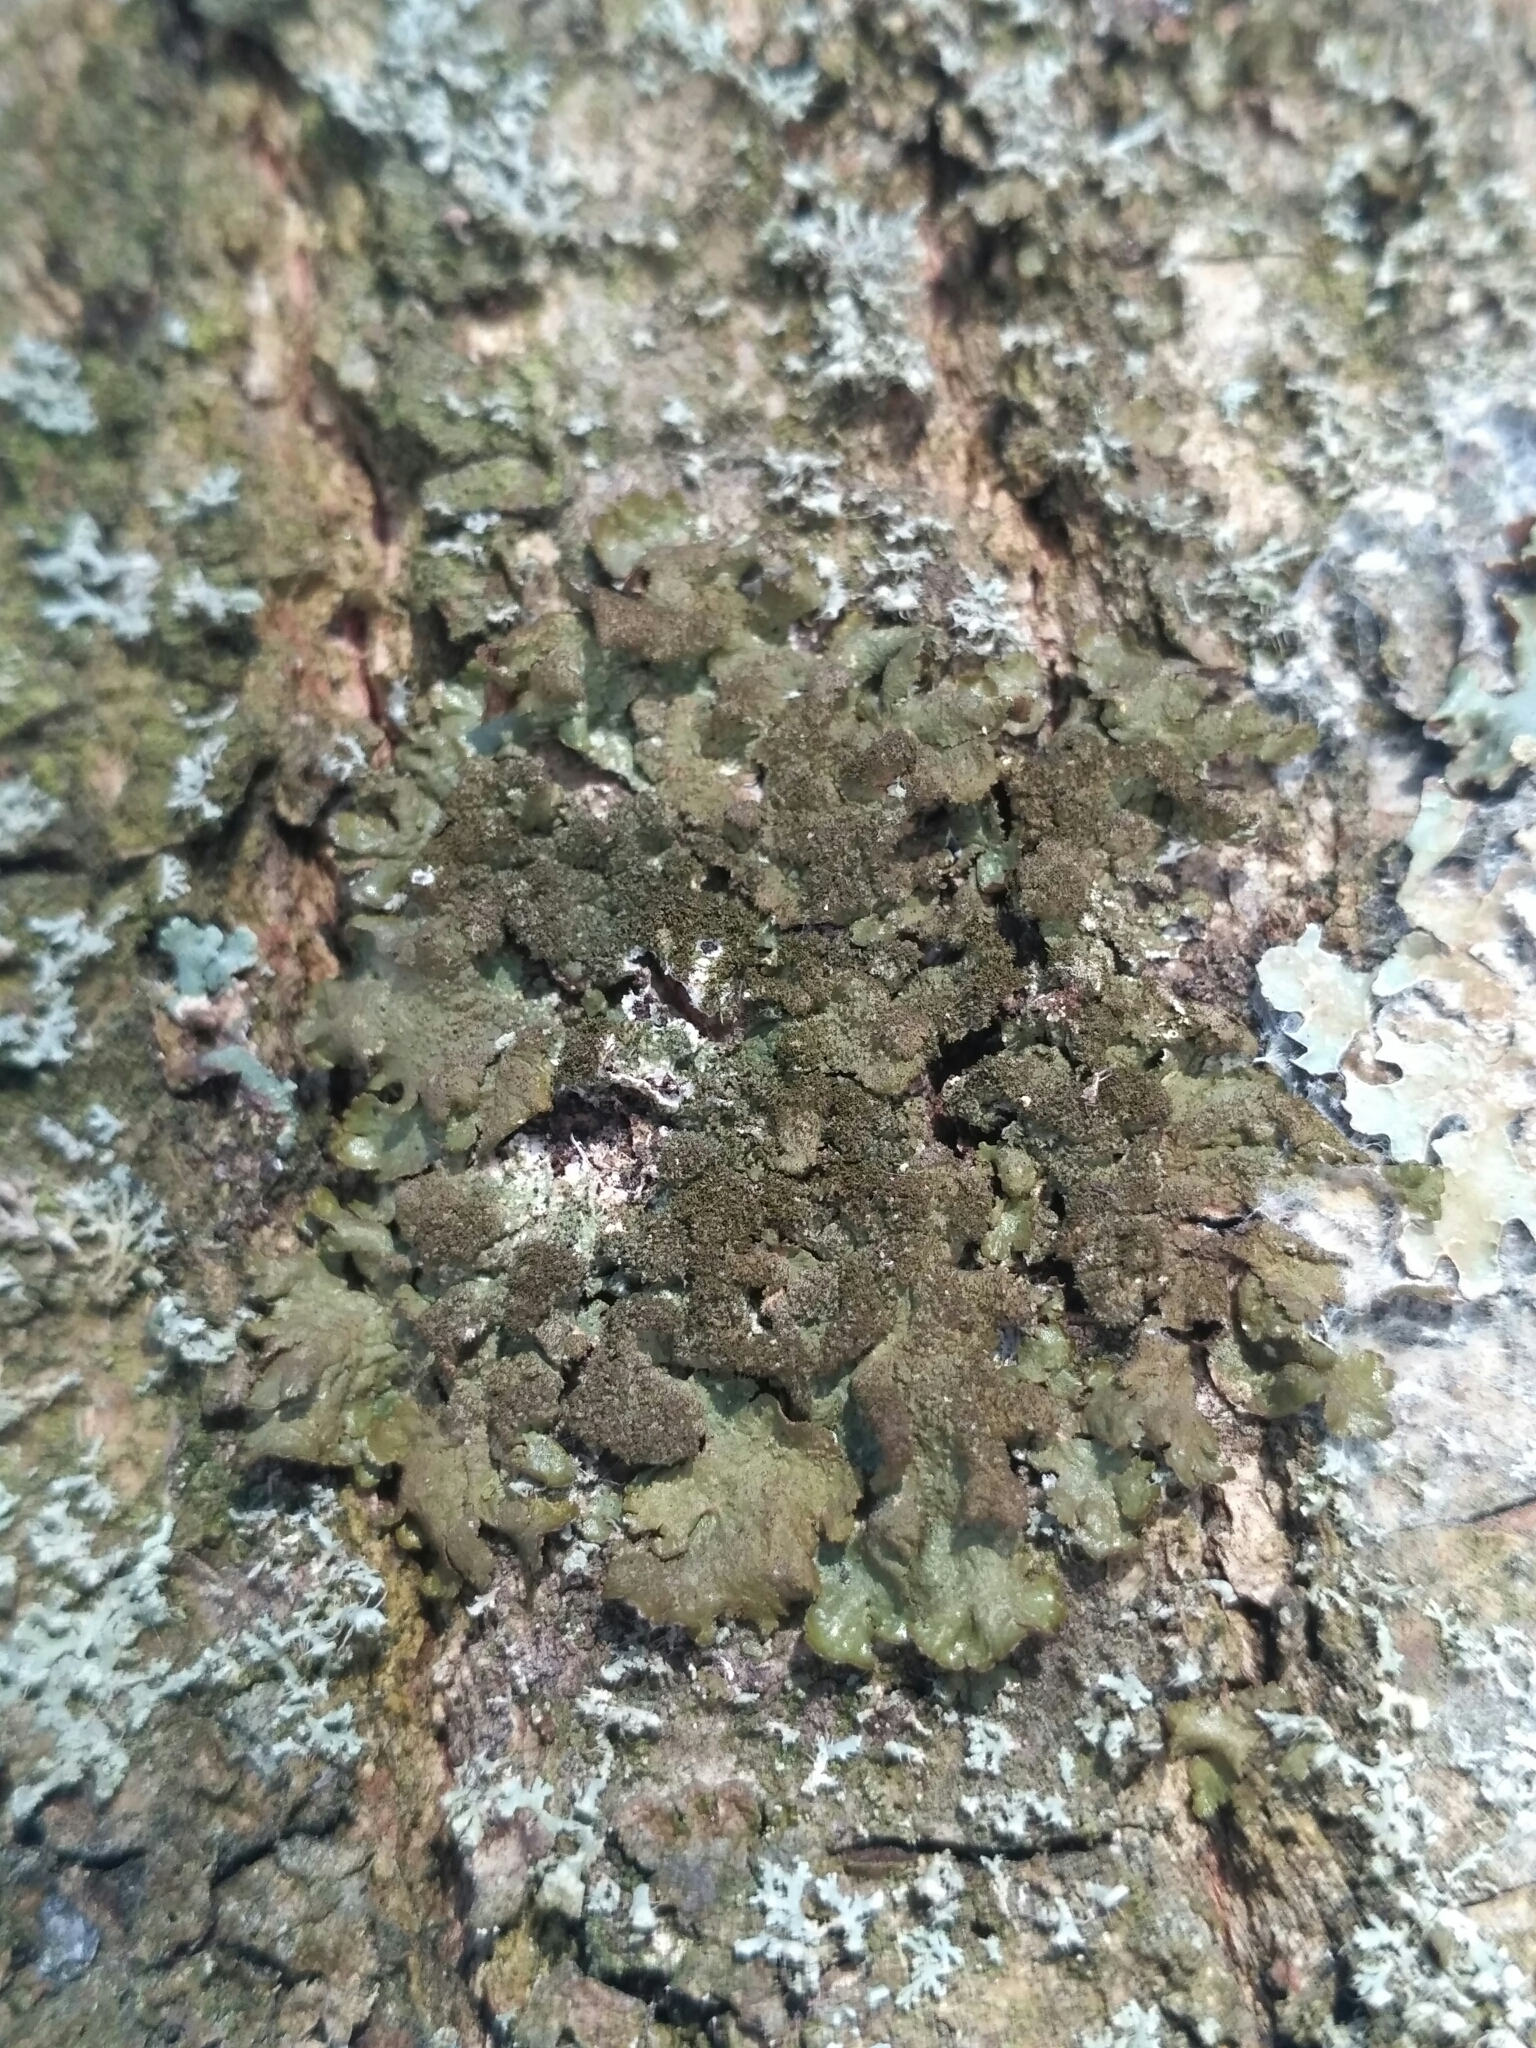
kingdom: Fungi
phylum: Ascomycota
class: Lecanoromycetes
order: Lecanorales
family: Parmeliaceae
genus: Melanelixia
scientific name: Melanelixia subaurifera
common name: Abraded camouflage lichen
